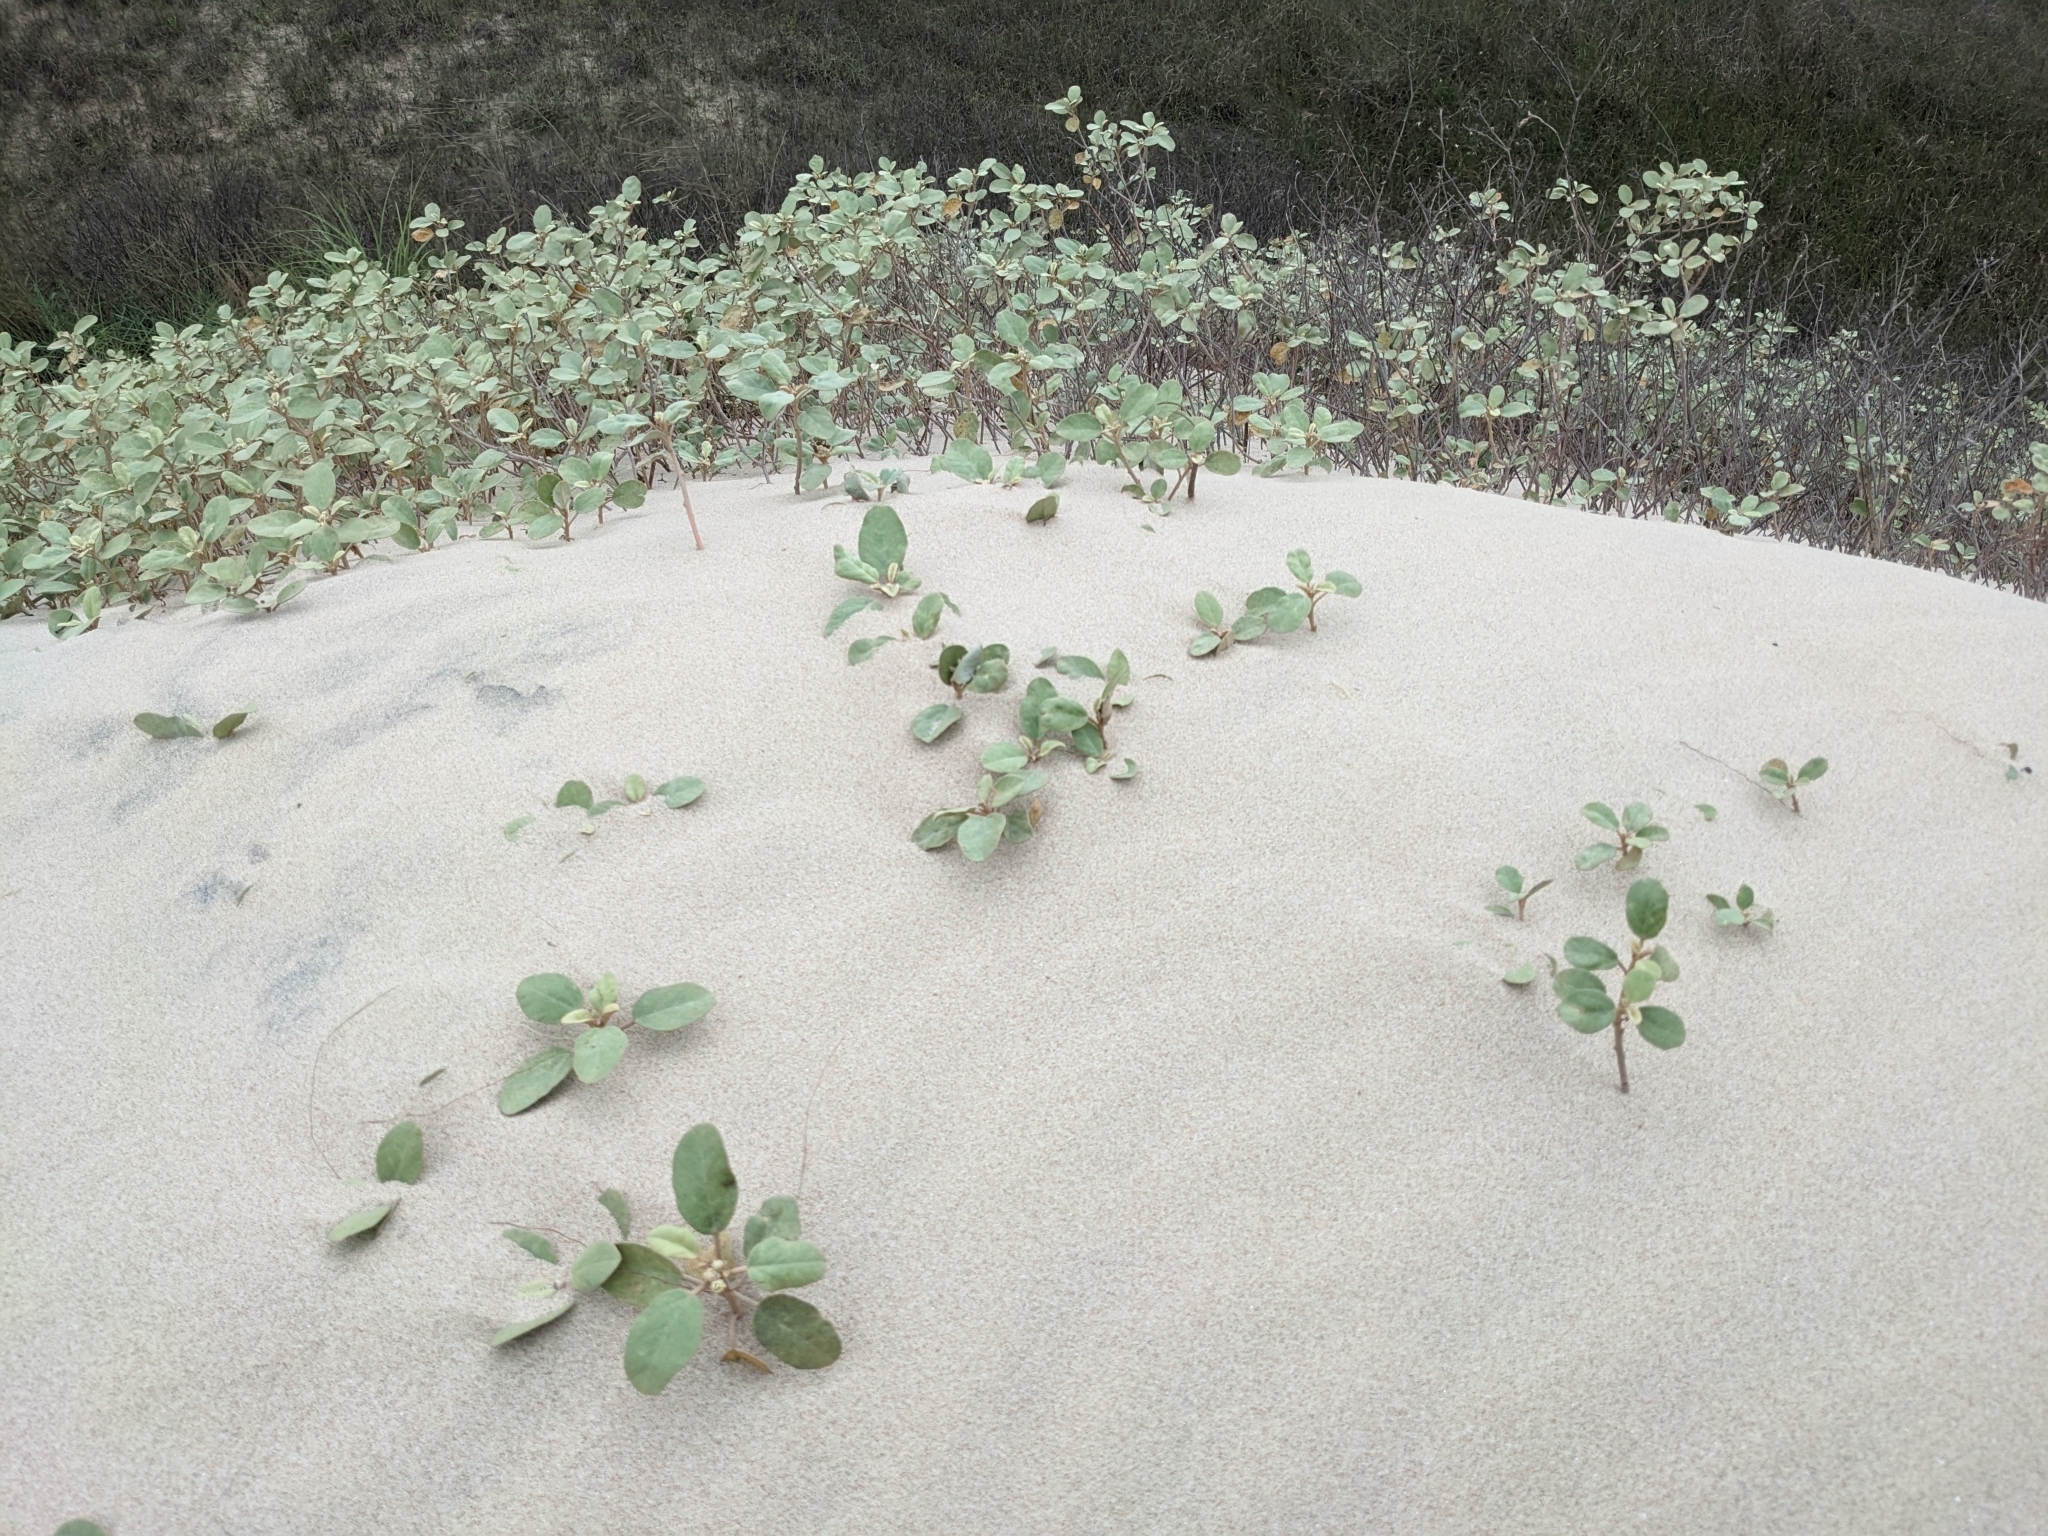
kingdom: Plantae
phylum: Tracheophyta
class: Magnoliopsida
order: Malpighiales
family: Euphorbiaceae
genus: Croton
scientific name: Croton punctatus
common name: Beach-tea
